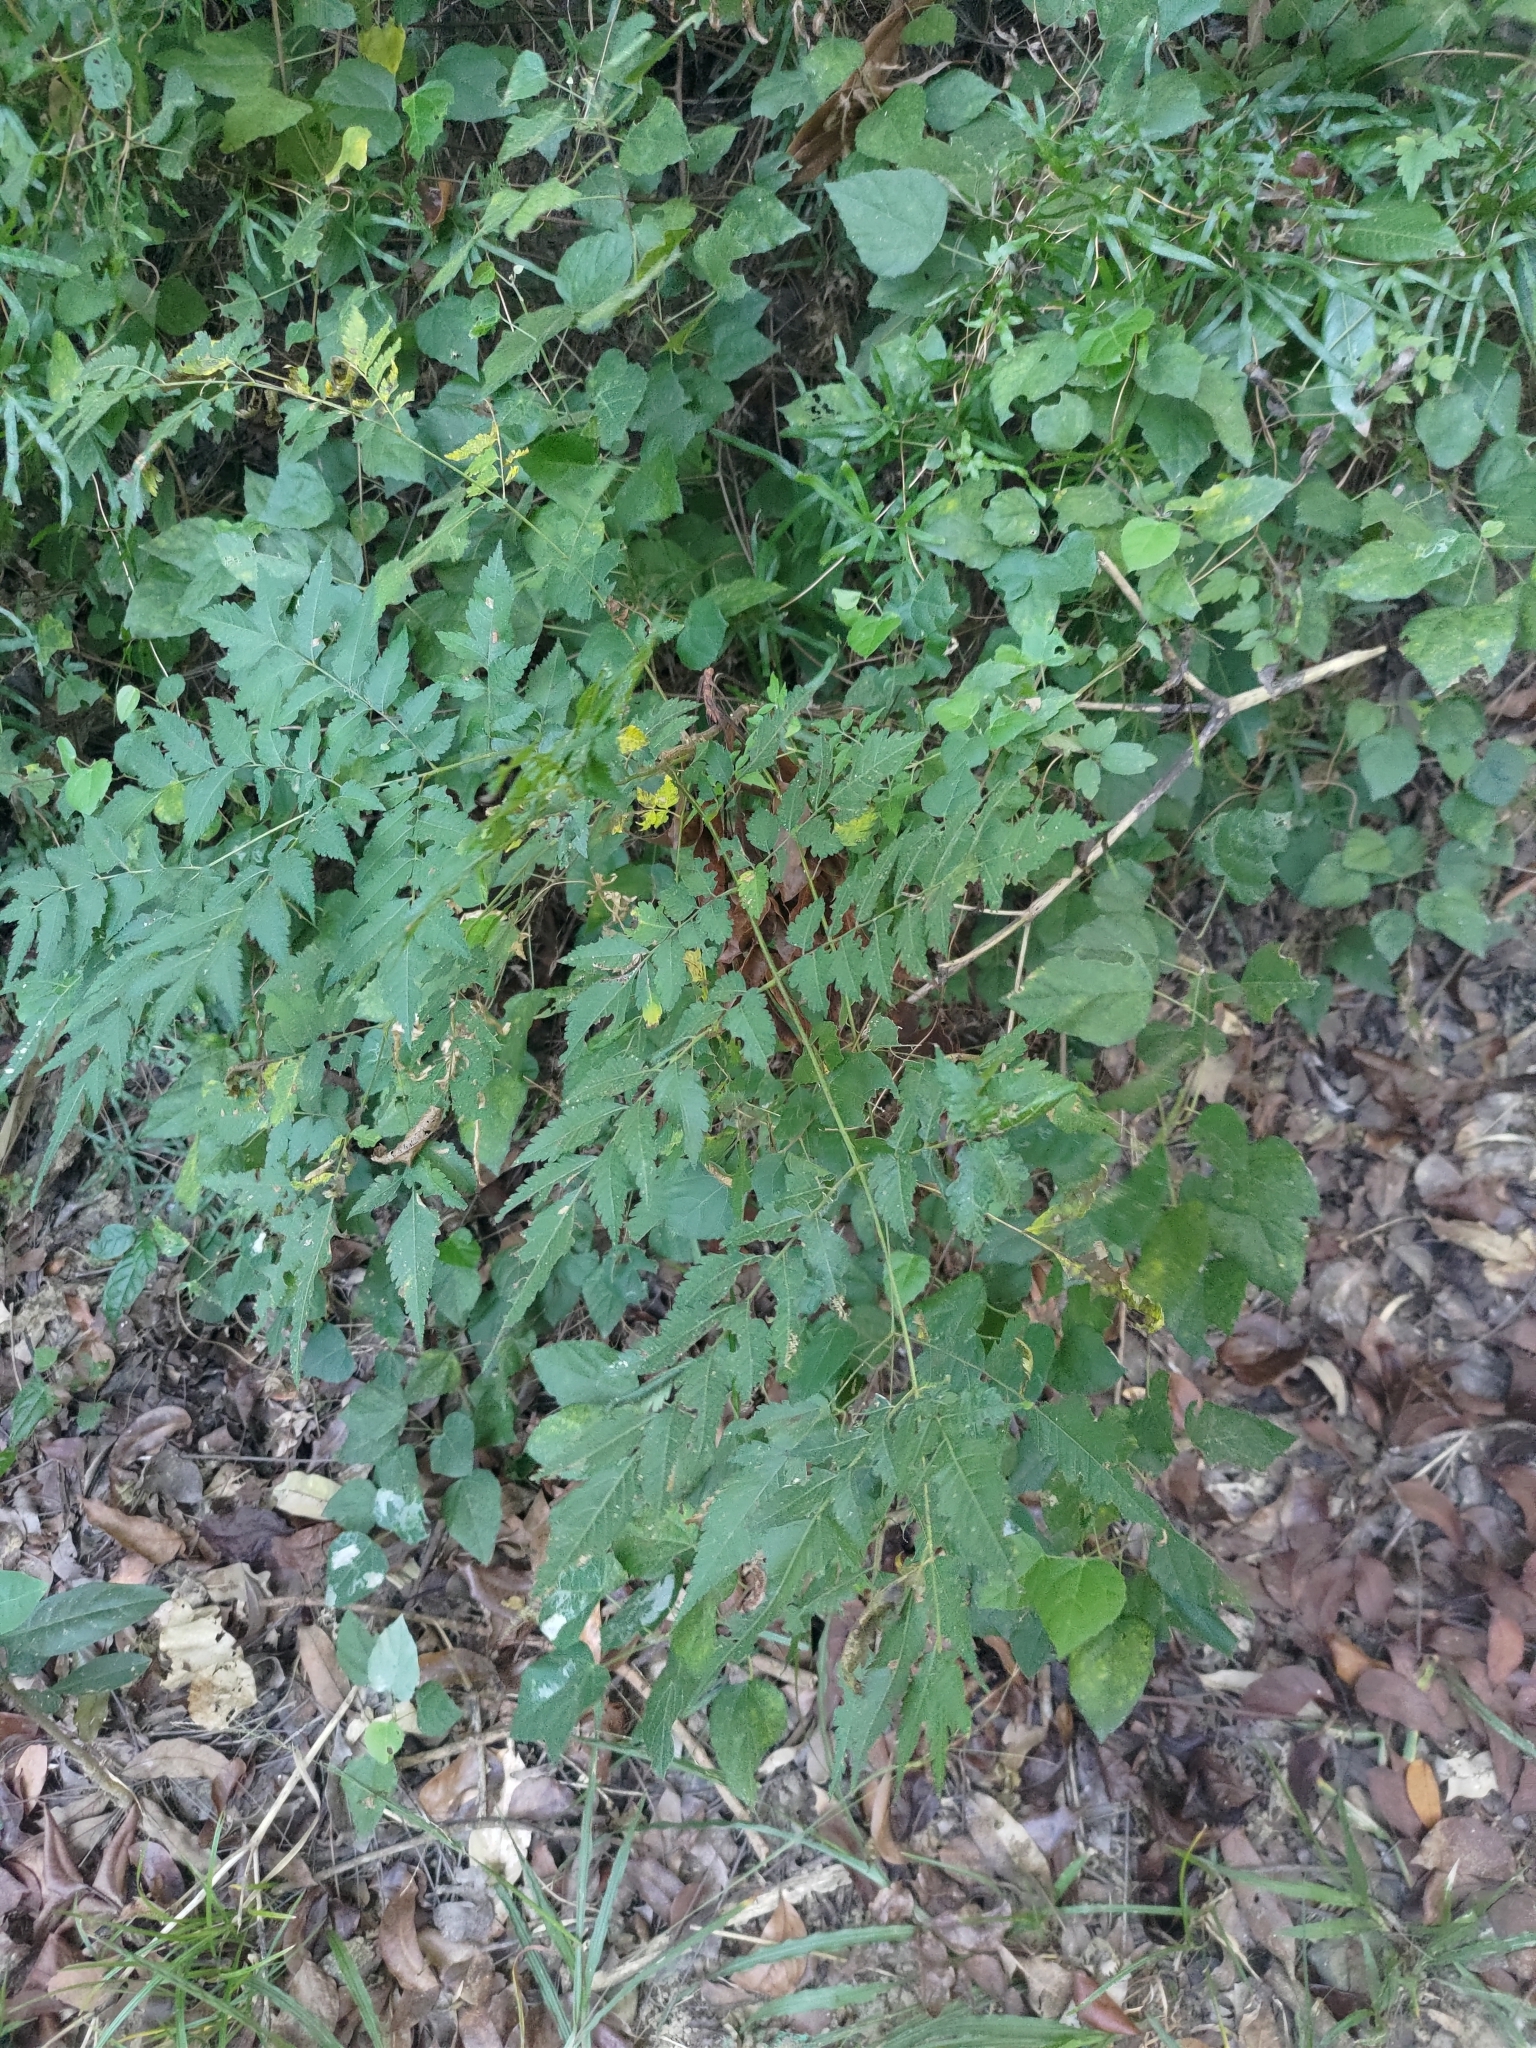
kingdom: Plantae
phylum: Tracheophyta
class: Magnoliopsida
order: Sapindales
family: Sapindaceae
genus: Koelreuteria
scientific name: Koelreuteria elegans
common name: Chinese flame tree
